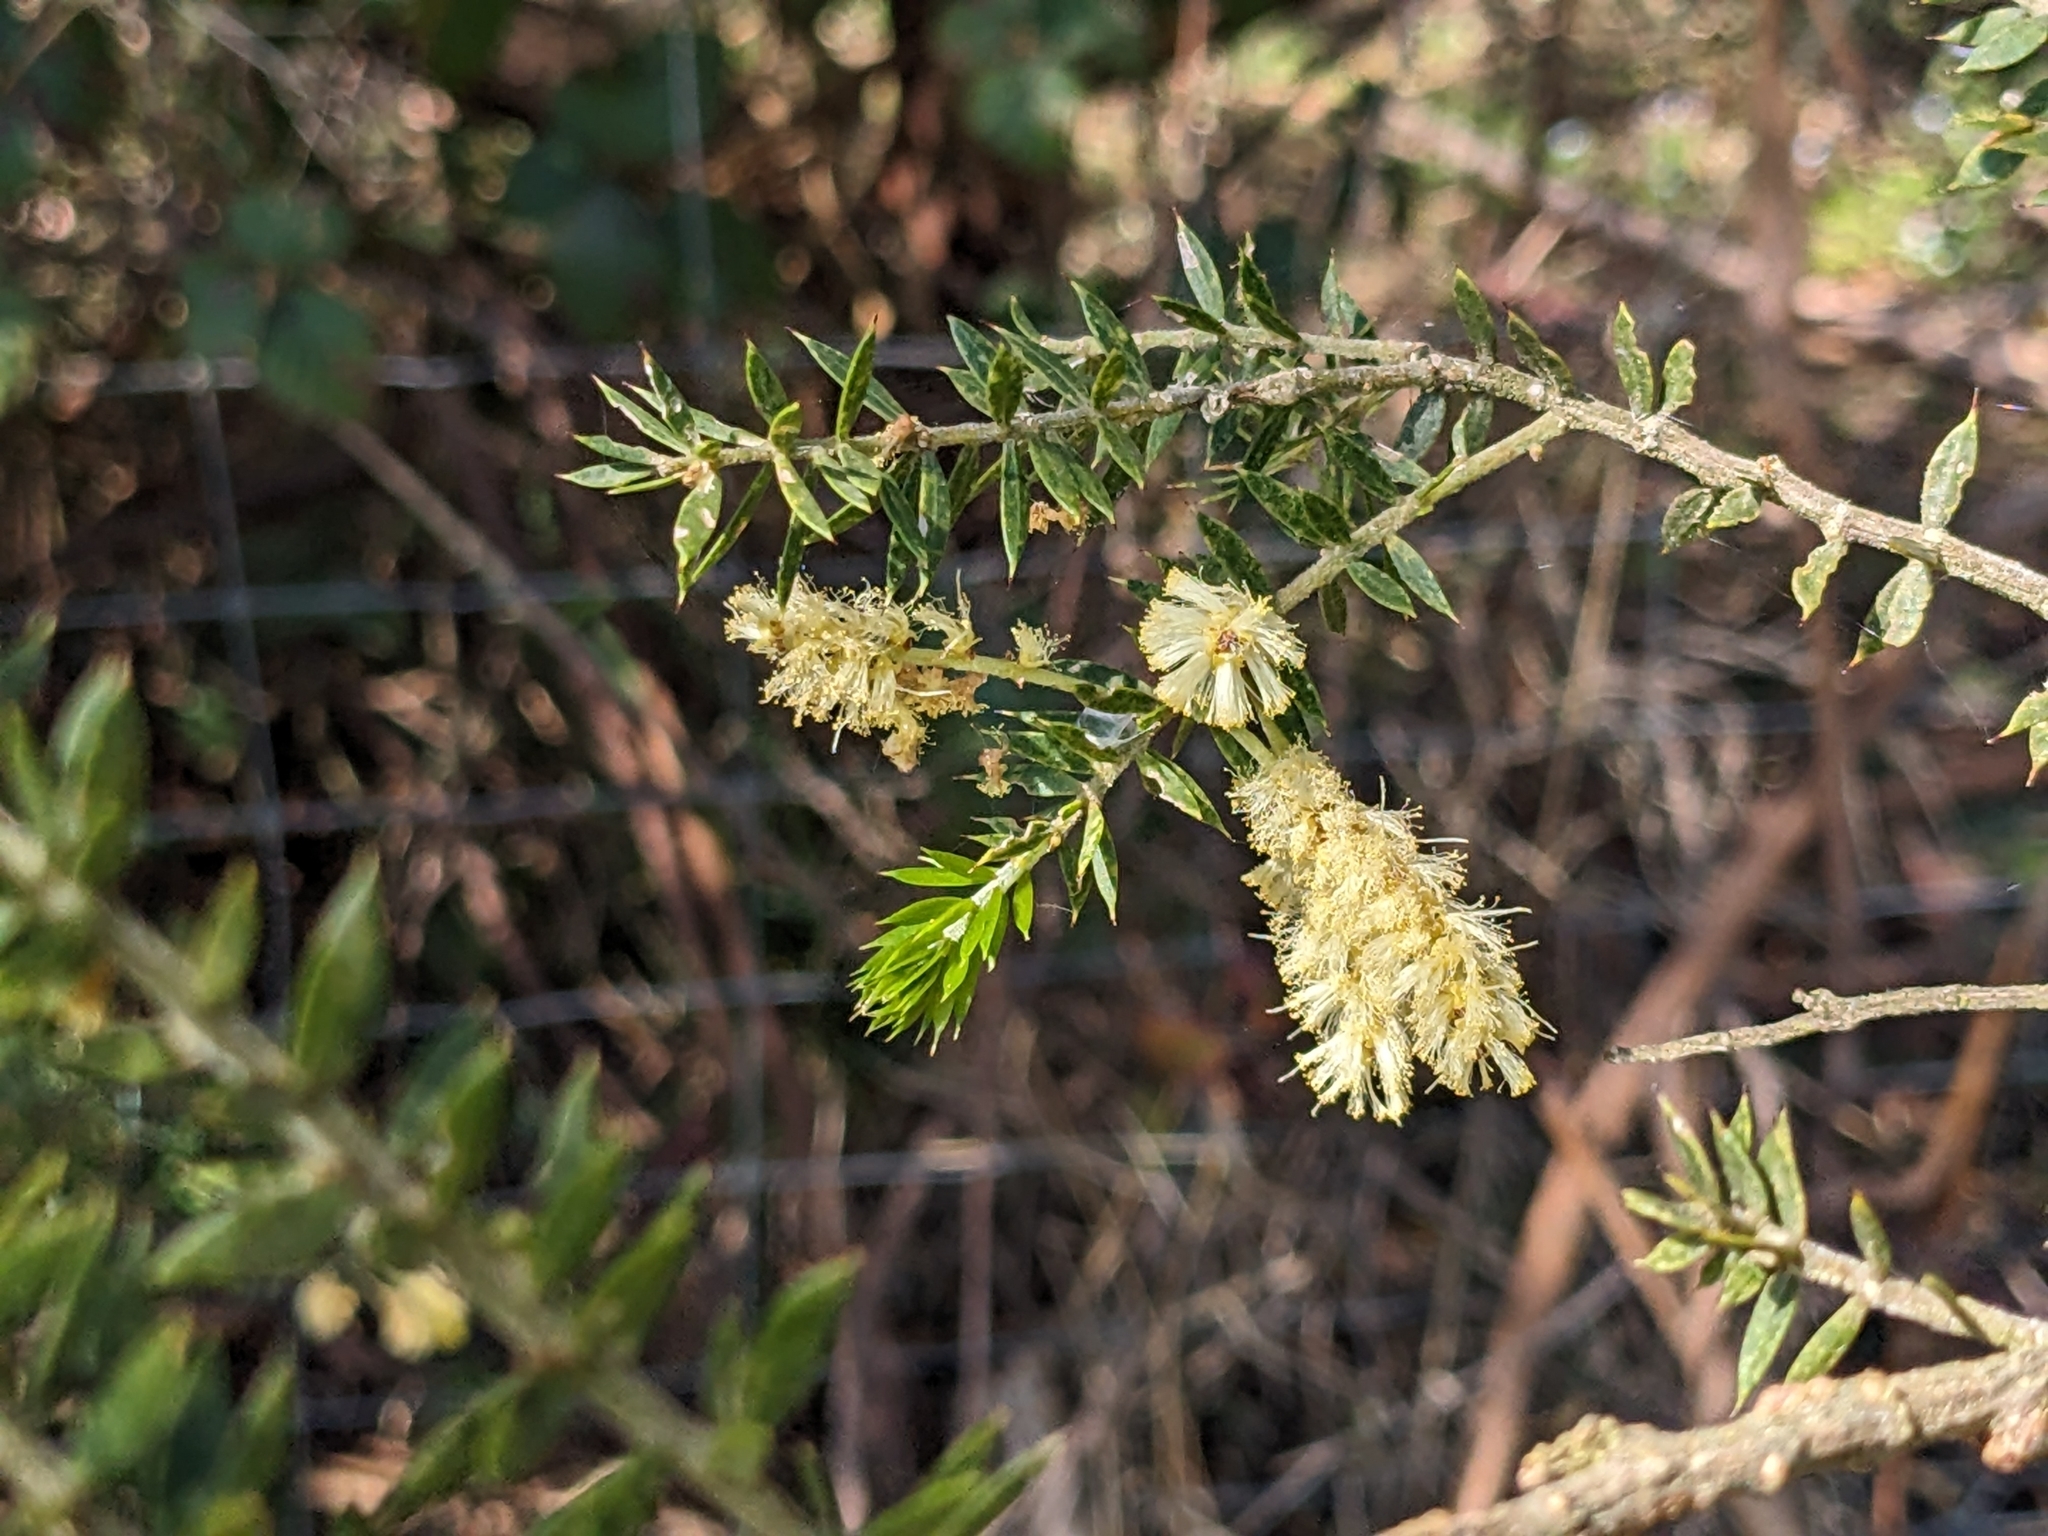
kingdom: Plantae
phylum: Tracheophyta
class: Magnoliopsida
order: Fabales
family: Fabaceae
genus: Acacia
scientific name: Acacia verticillata
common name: Prickly moses
